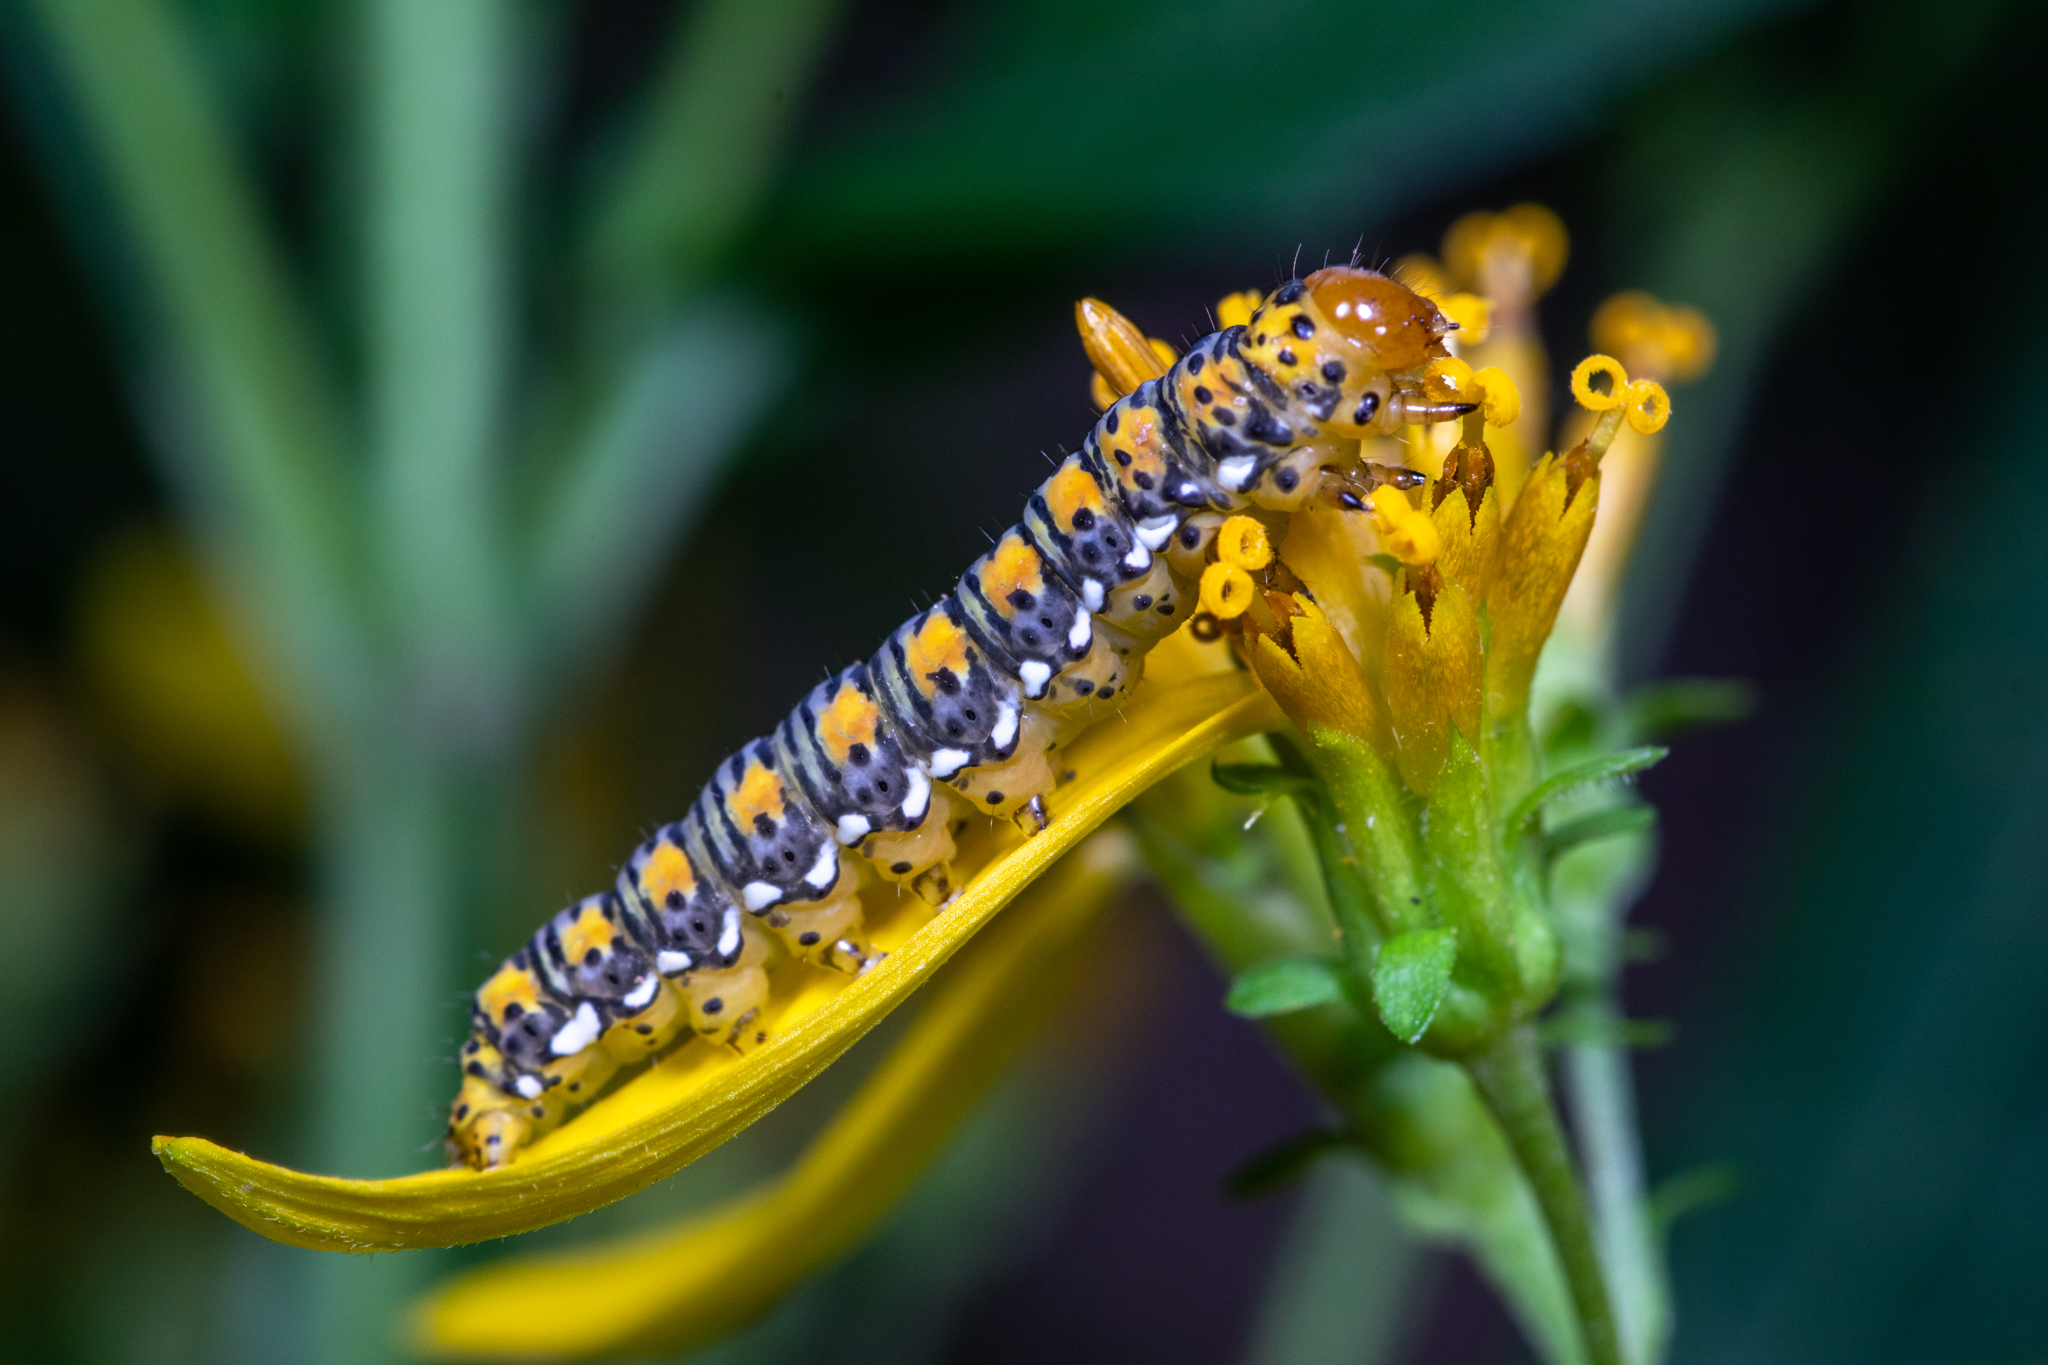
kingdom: Animalia
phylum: Arthropoda
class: Insecta
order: Lepidoptera
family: Noctuidae
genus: Basilodes
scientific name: Basilodes pepita
